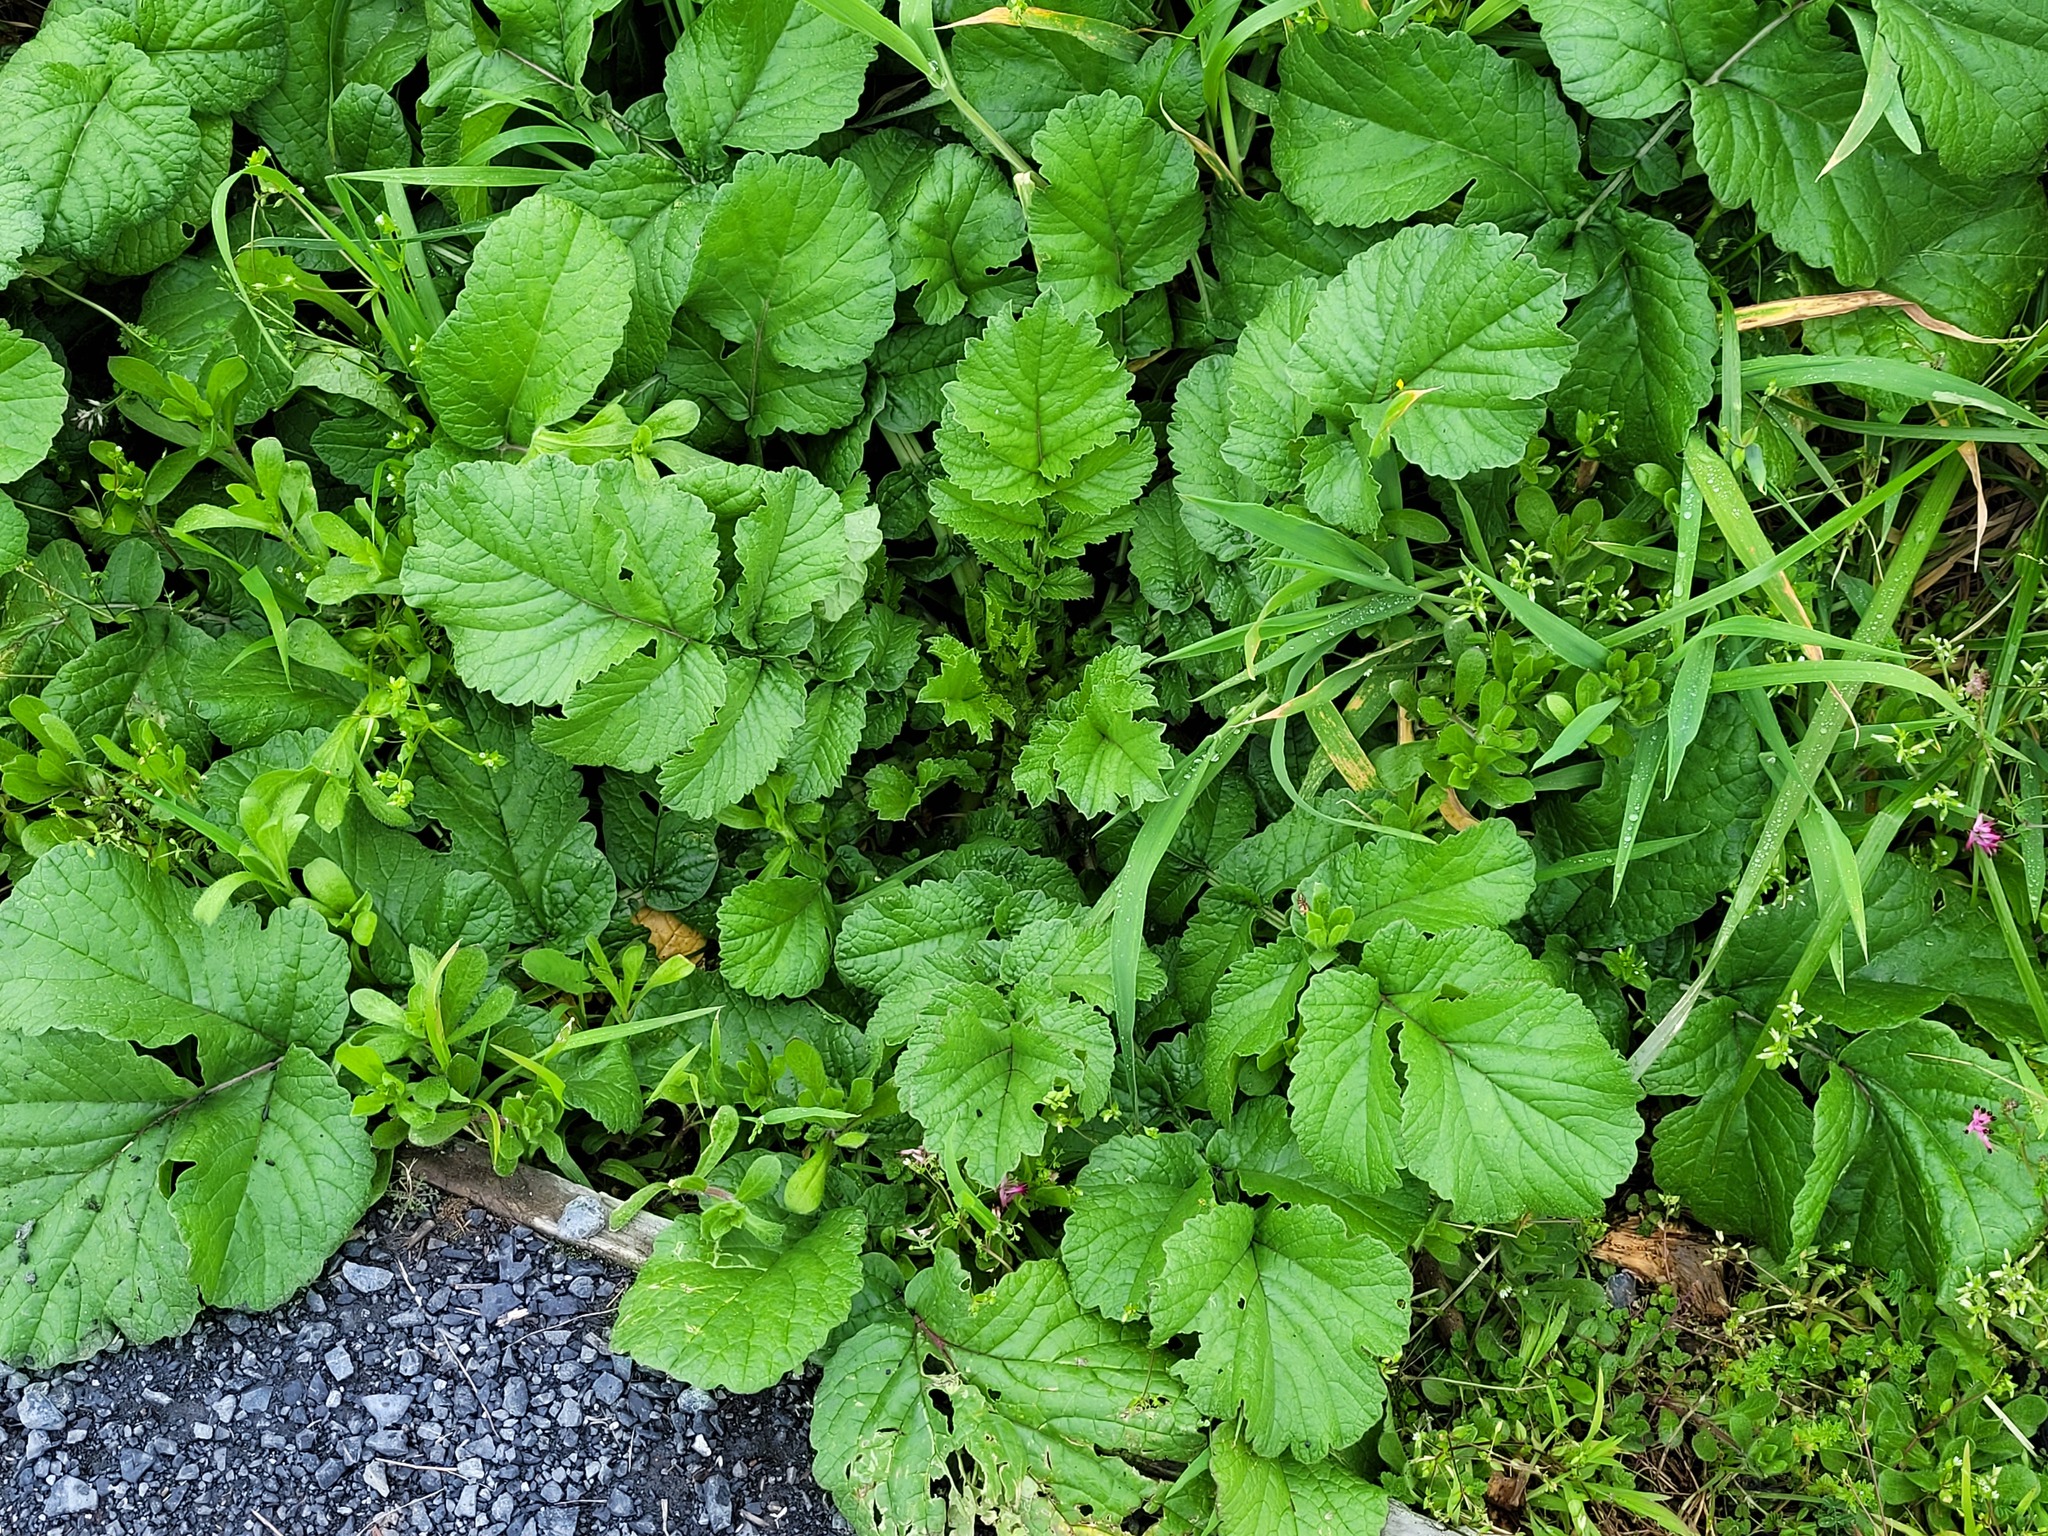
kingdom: Plantae
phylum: Tracheophyta
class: Magnoliopsida
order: Brassicales
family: Brassicaceae
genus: Raphanus
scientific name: Raphanus raphanistrum
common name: Wild radish
